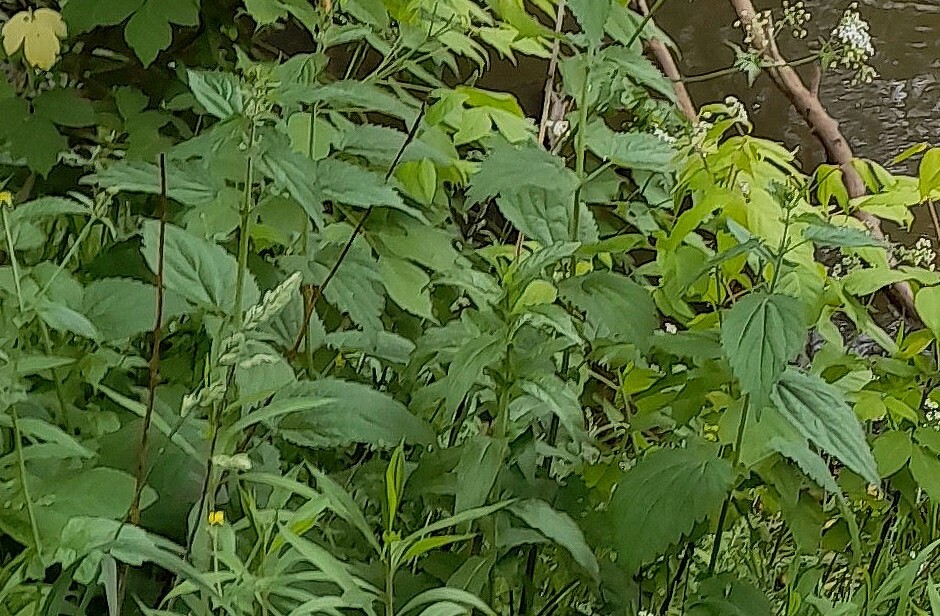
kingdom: Plantae
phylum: Tracheophyta
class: Magnoliopsida
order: Rosales
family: Urticaceae
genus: Urtica
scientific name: Urtica dioica
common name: Common nettle
